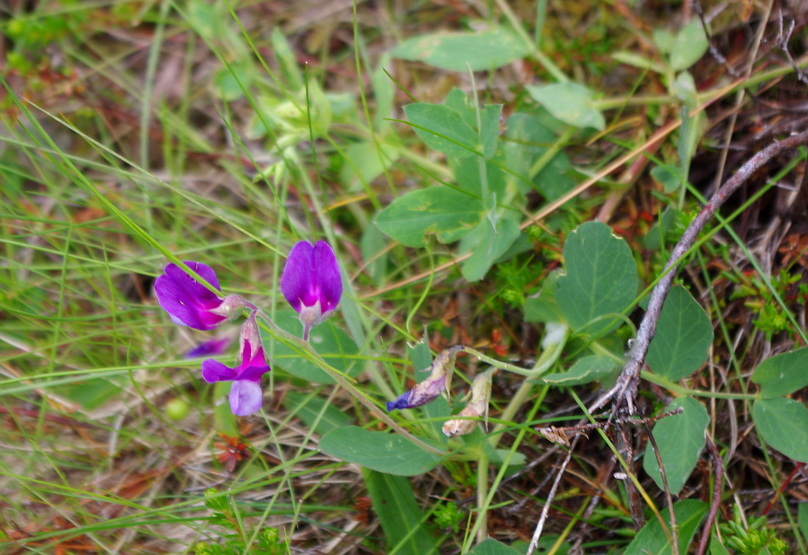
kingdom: Plantae
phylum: Tracheophyta
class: Magnoliopsida
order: Fabales
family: Fabaceae
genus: Lathyrus
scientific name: Lathyrus japonicus
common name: Sea pea
